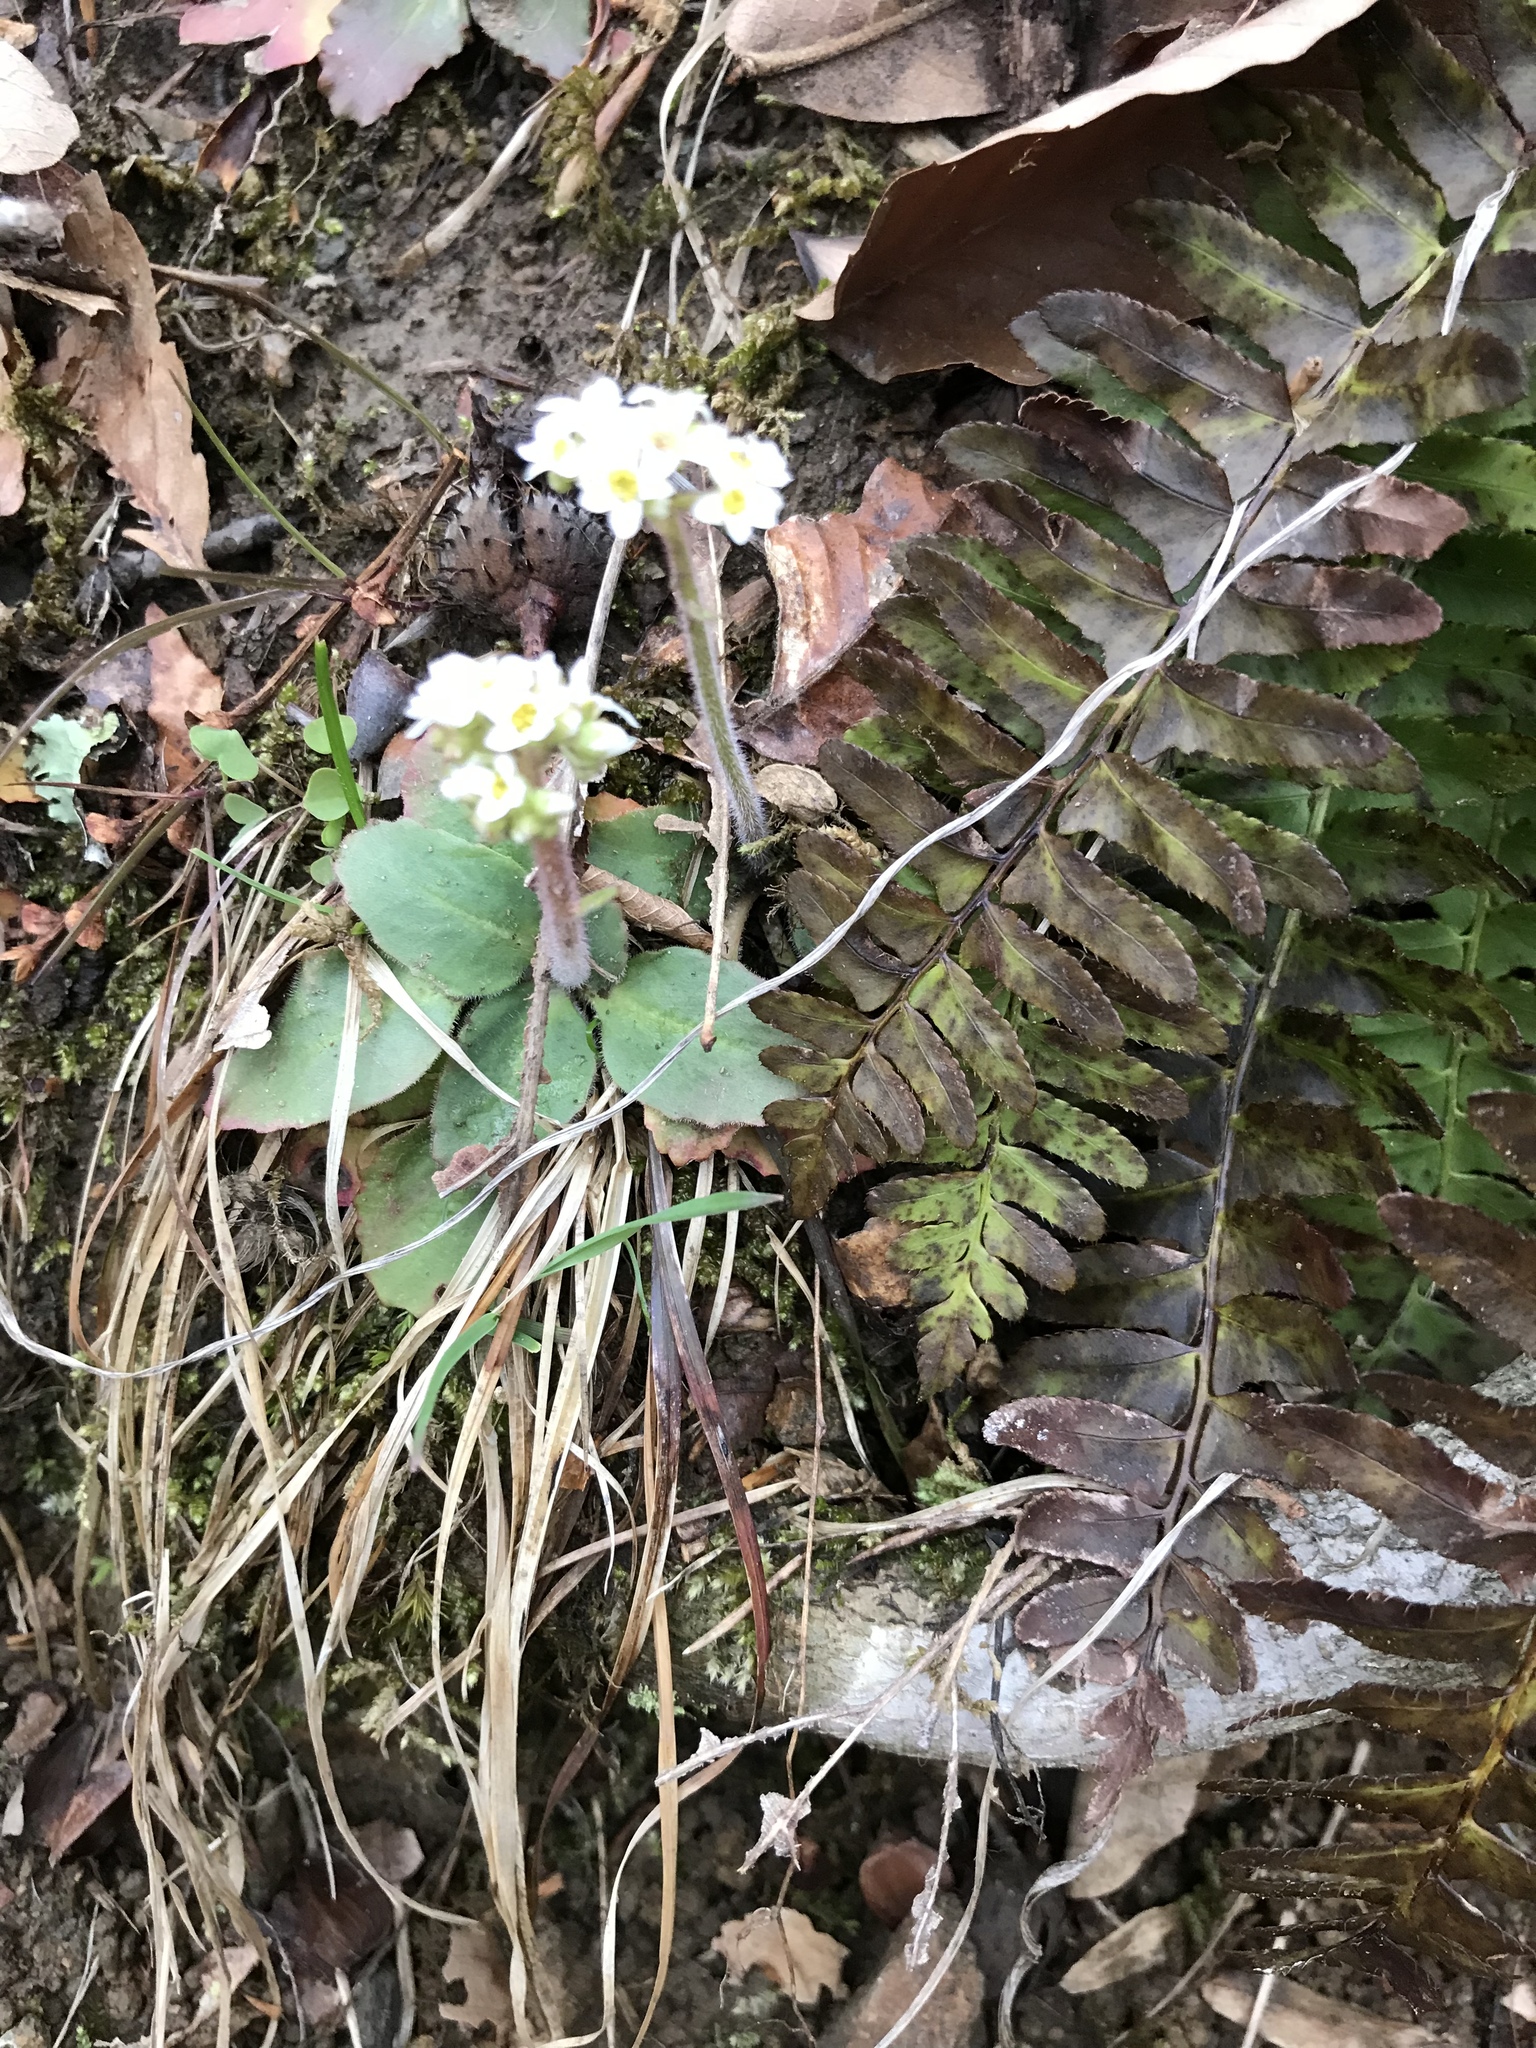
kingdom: Plantae
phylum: Tracheophyta
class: Magnoliopsida
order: Saxifragales
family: Saxifragaceae
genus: Micranthes
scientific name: Micranthes virginiensis
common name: Early saxifrage
